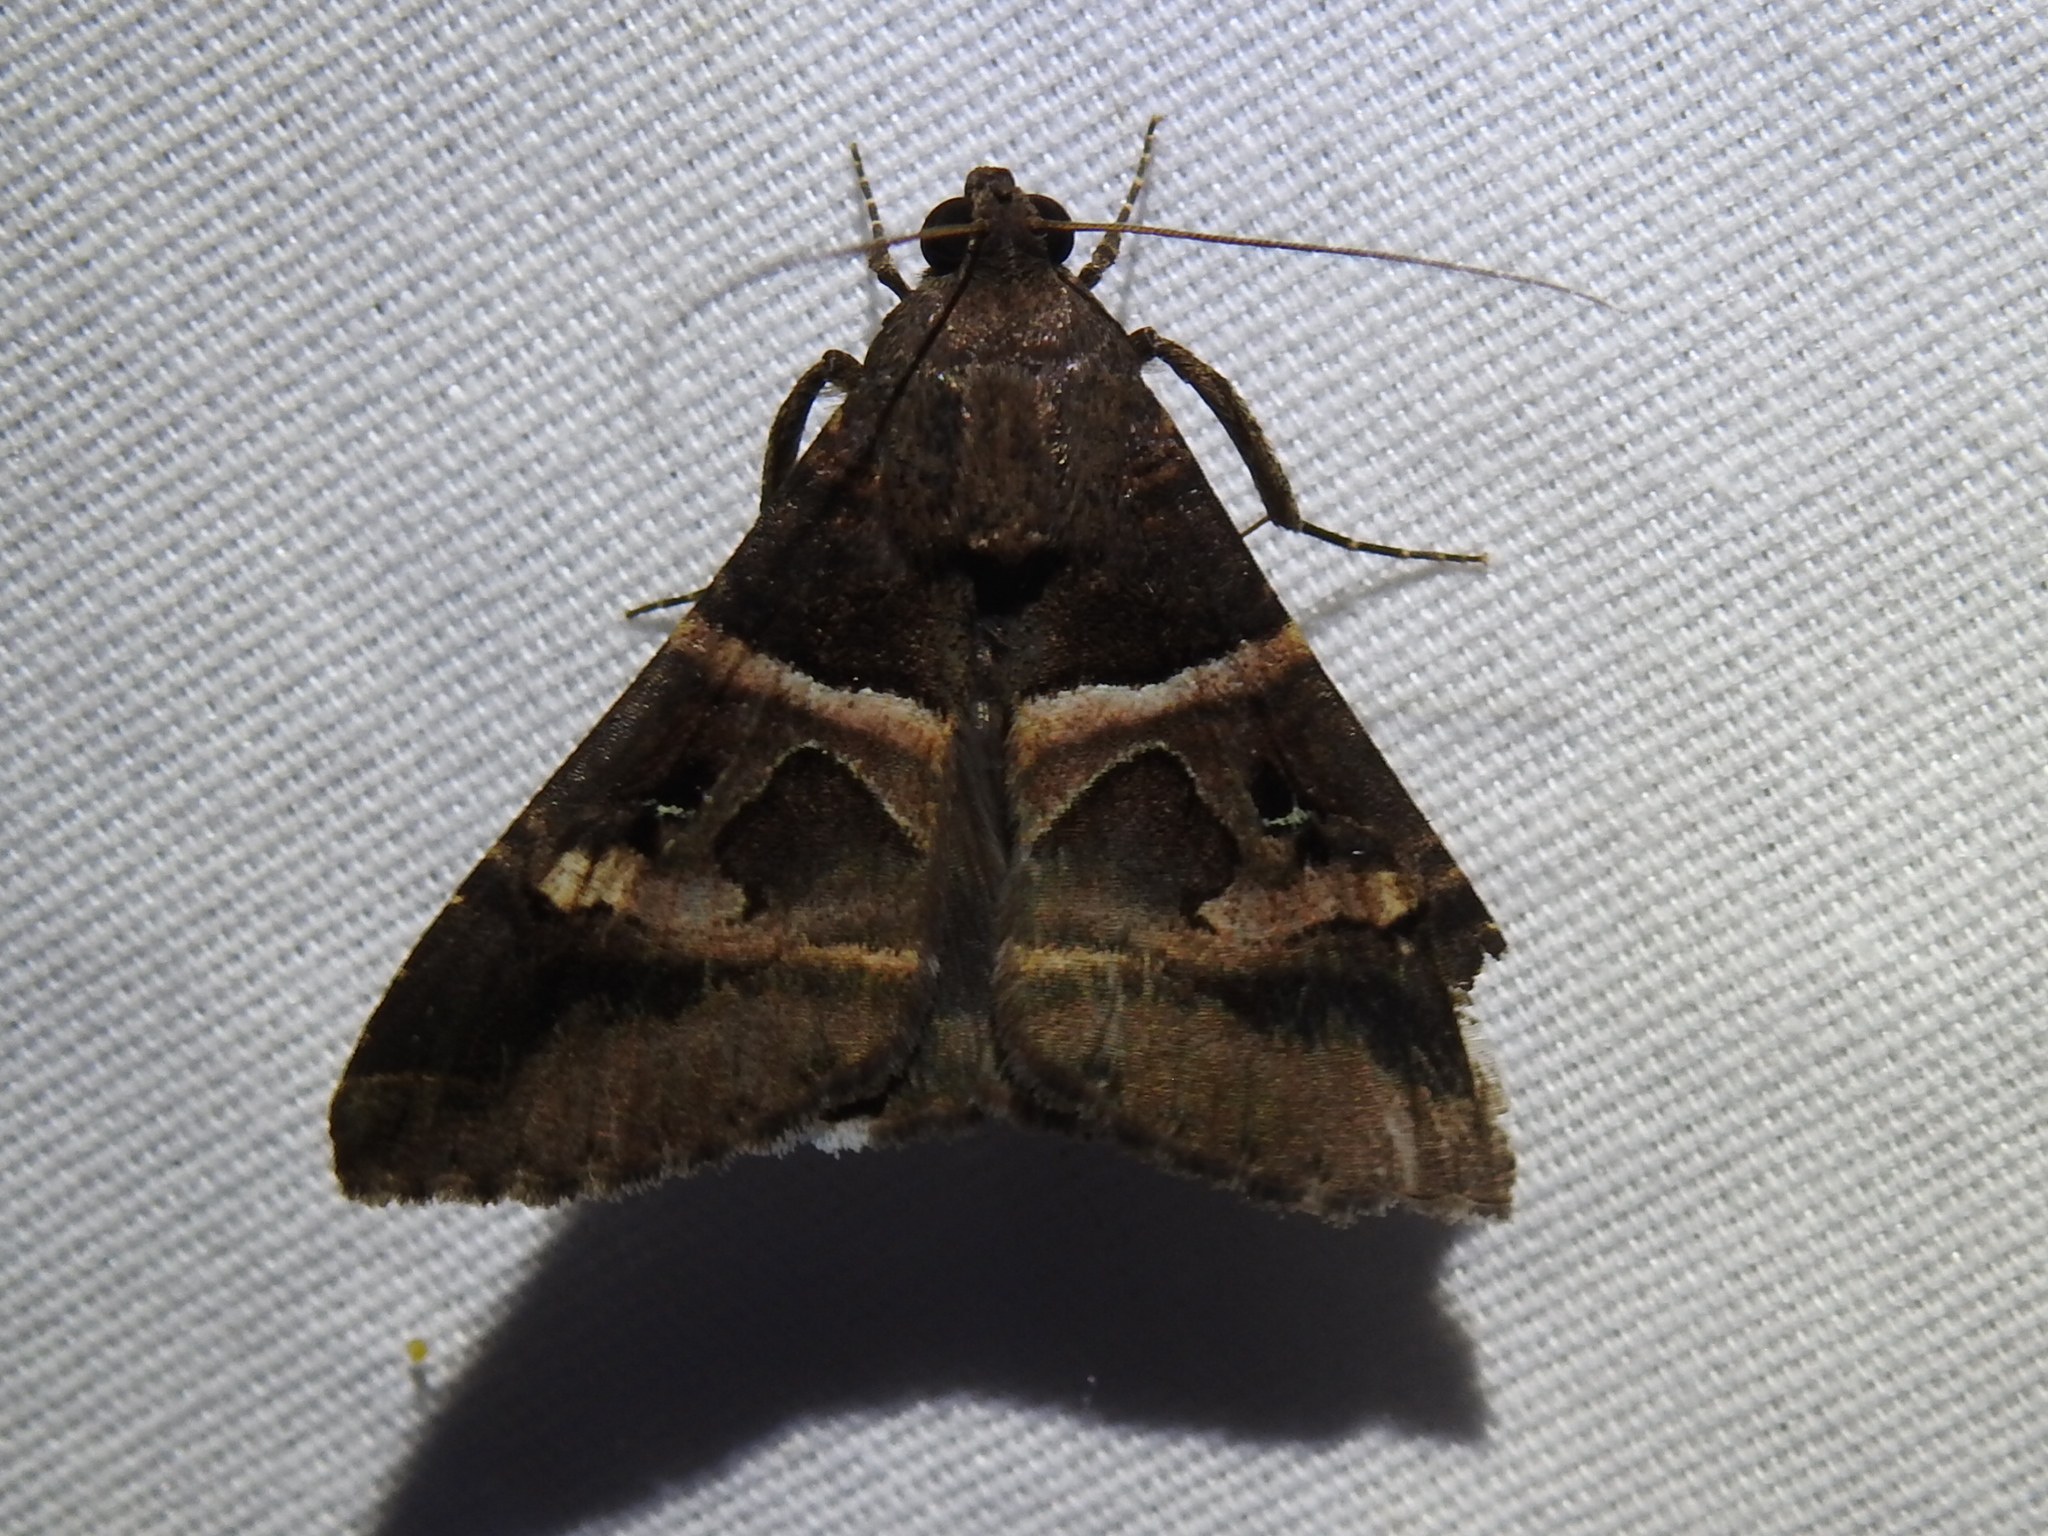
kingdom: Animalia
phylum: Arthropoda
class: Insecta
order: Lepidoptera
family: Erebidae
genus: Melipotis
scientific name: Melipotis perpendicularis
